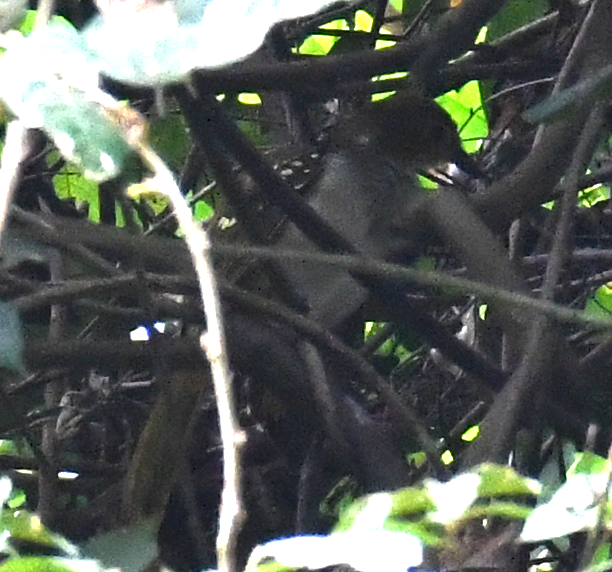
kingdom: Animalia
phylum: Chordata
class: Aves
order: Passeriformes
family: Nicatoridae
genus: Nicator
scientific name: Nicator chloris
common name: Western nicator
